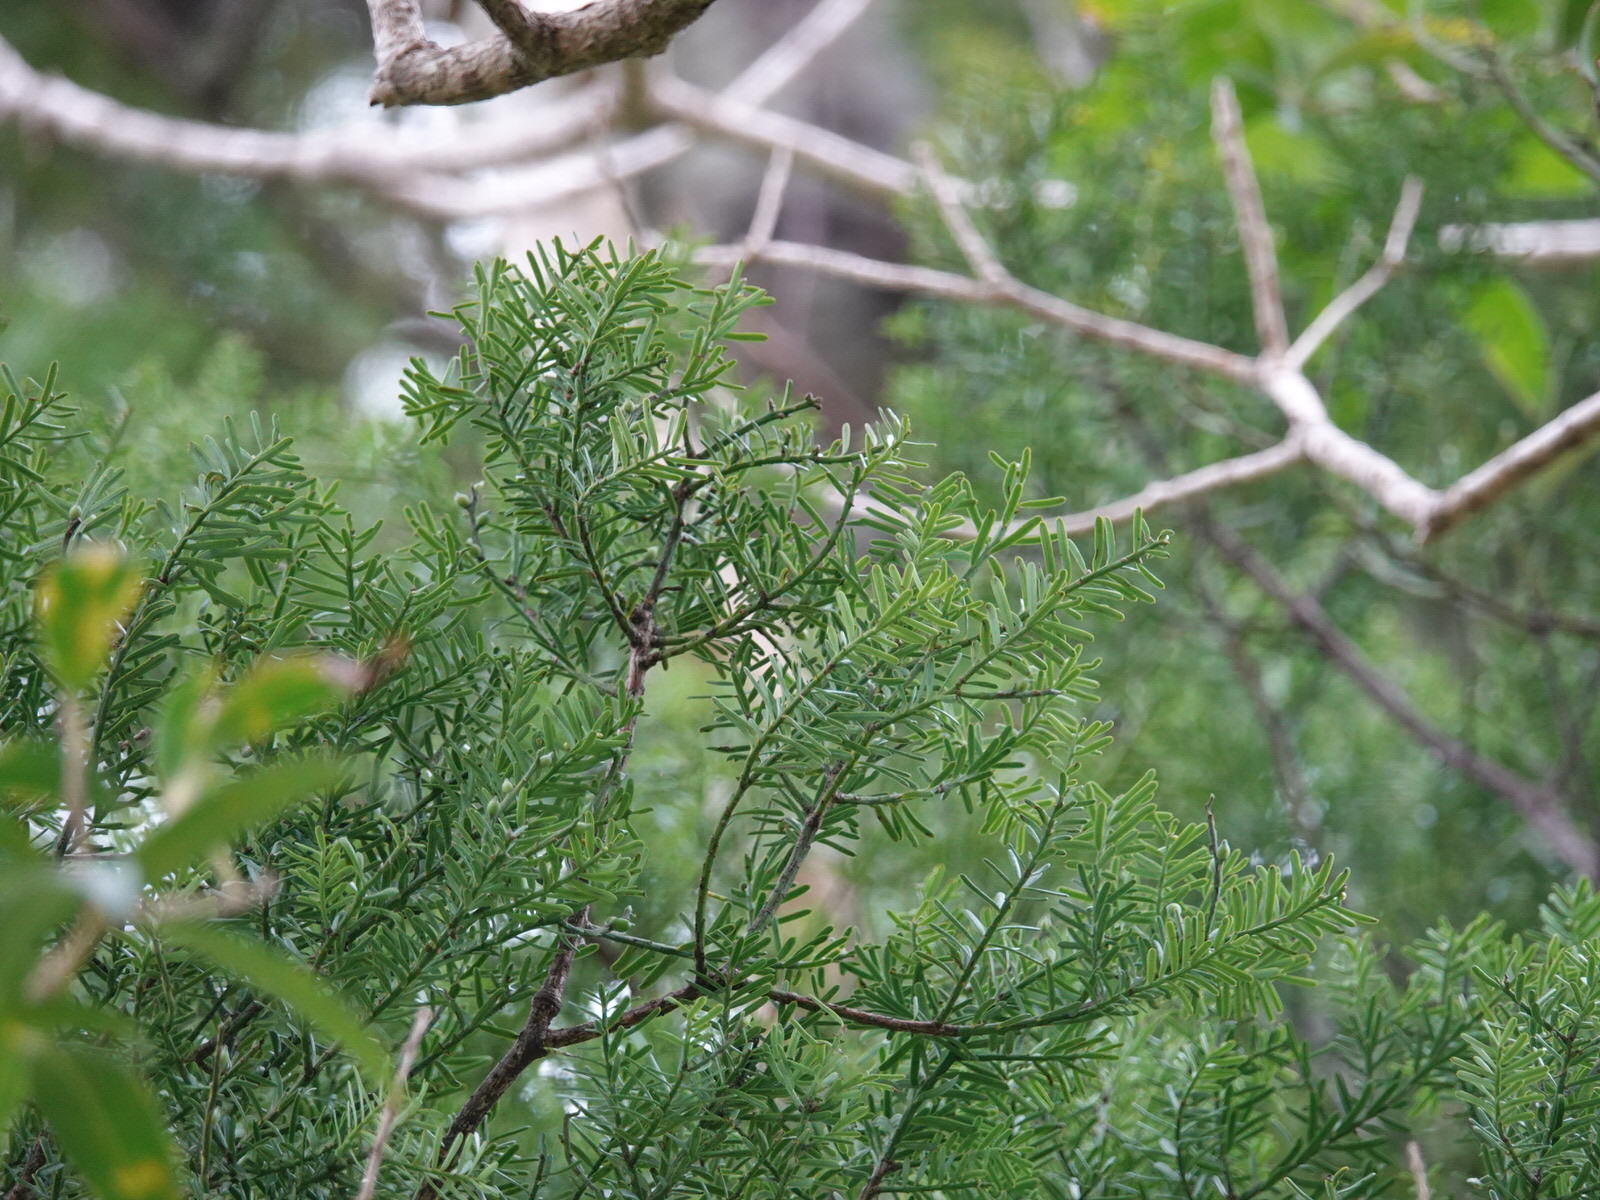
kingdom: Plantae
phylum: Tracheophyta
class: Pinopsida
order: Pinales
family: Podocarpaceae
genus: Prumnopitys
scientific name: Prumnopitys taxifolia
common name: Matai
